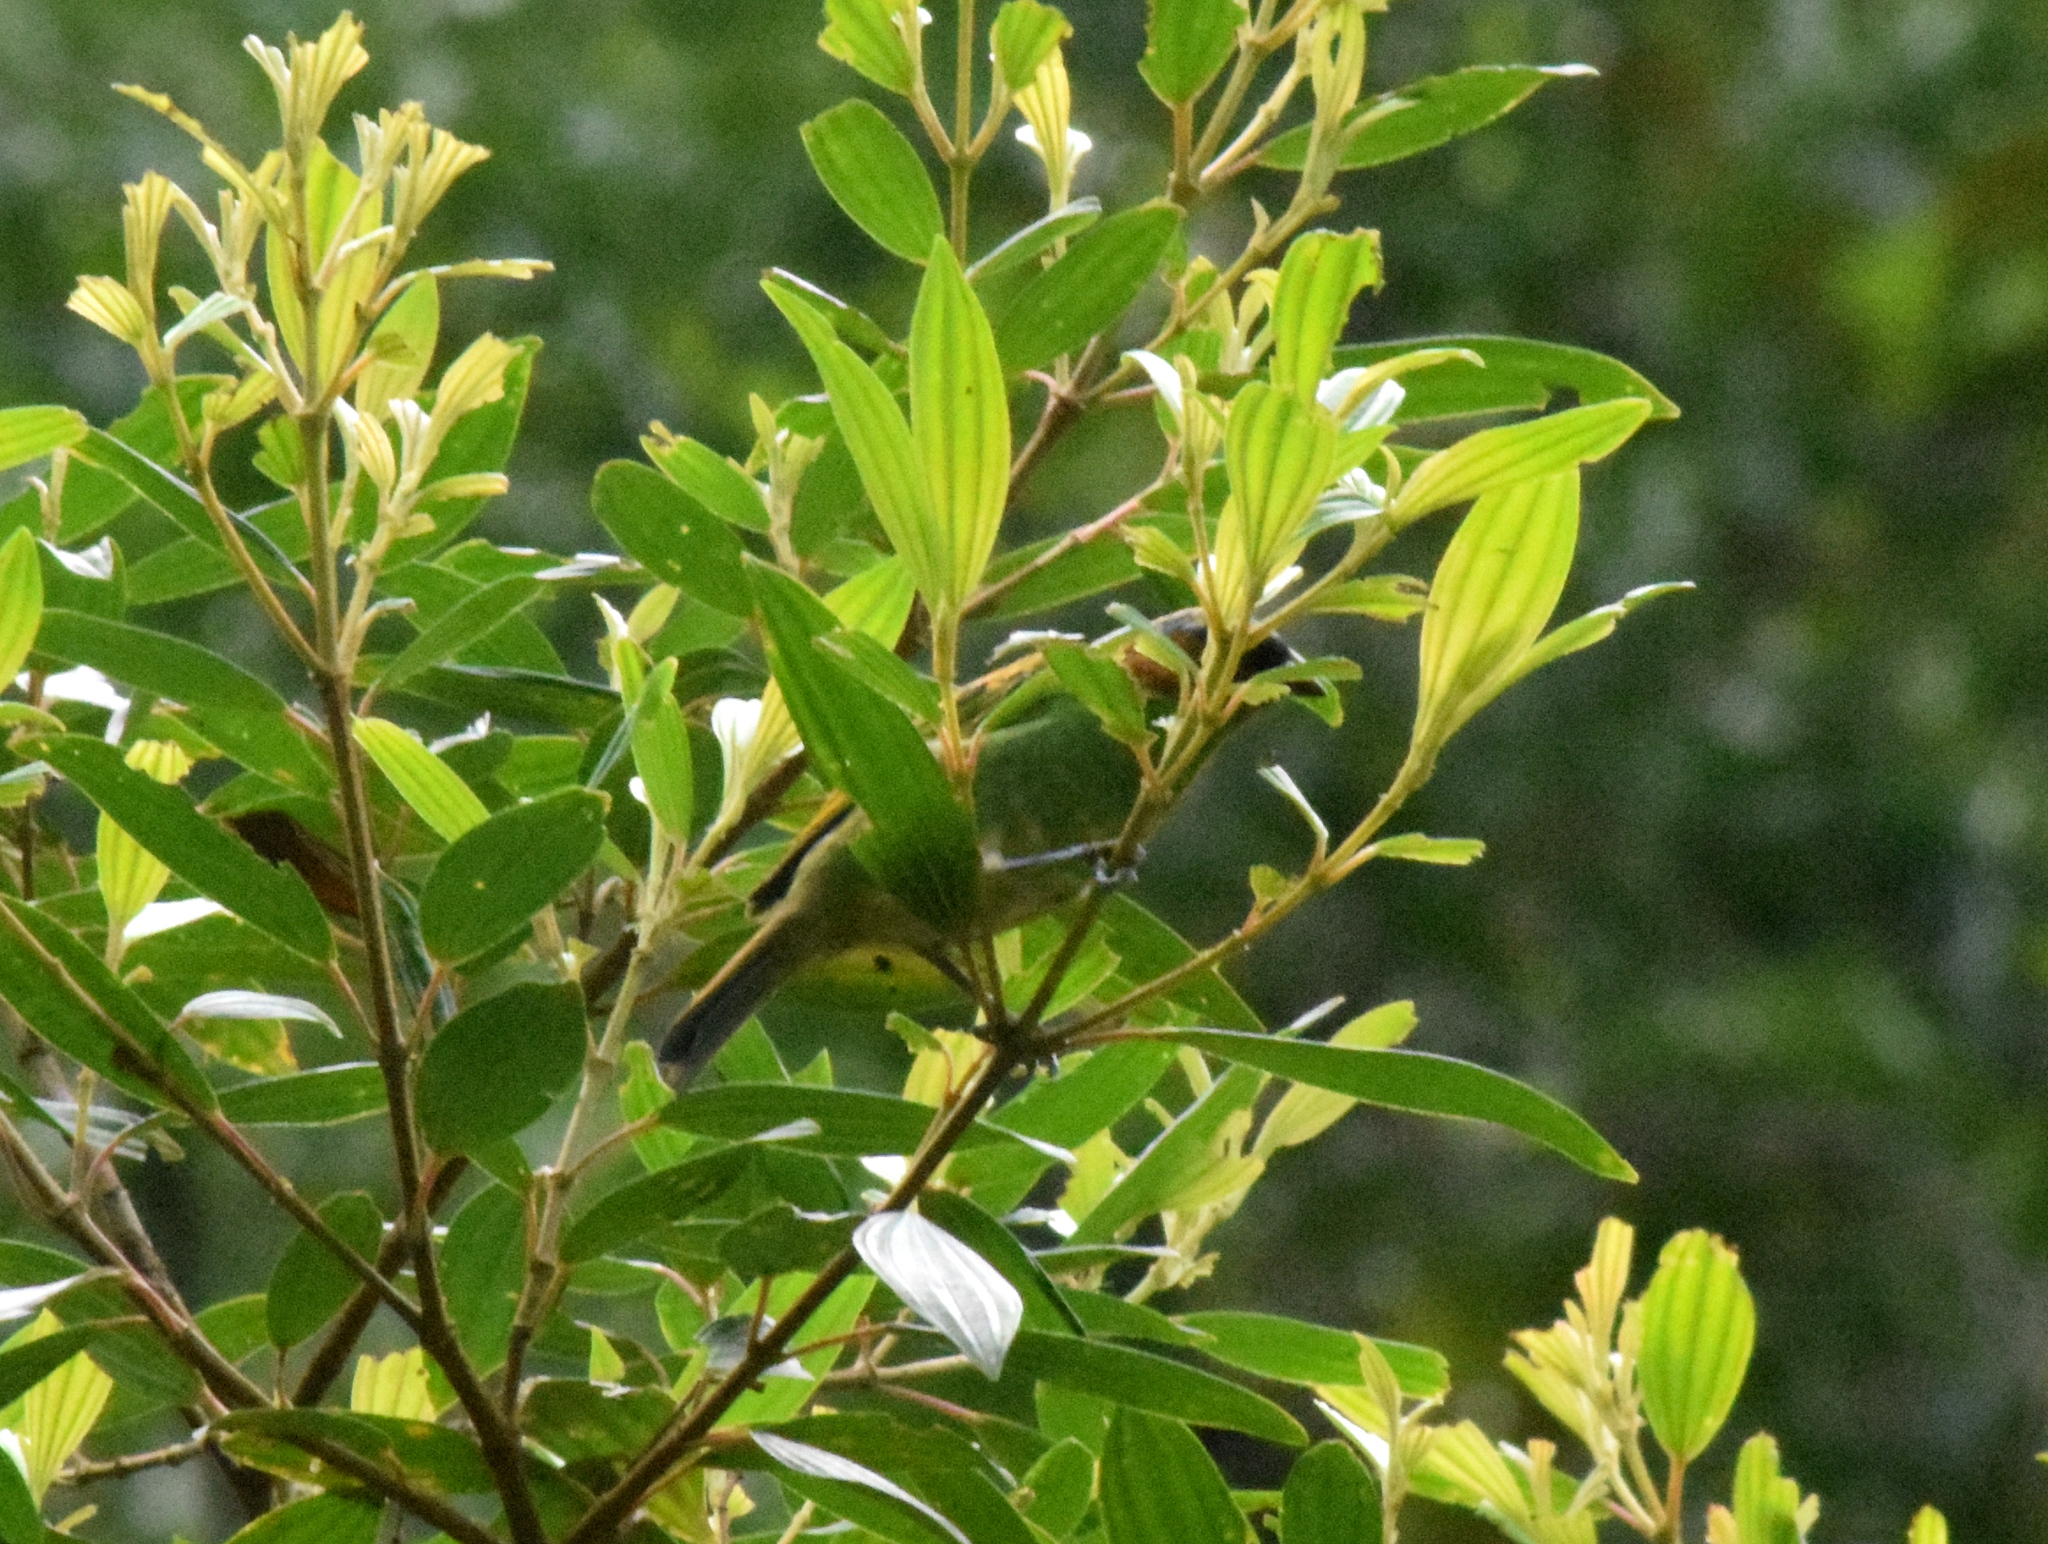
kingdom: Animalia
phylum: Chordata
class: Aves
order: Passeriformes
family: Thraupidae
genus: Tangara
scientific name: Tangara cyanocephala
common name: Red-necked tanager
